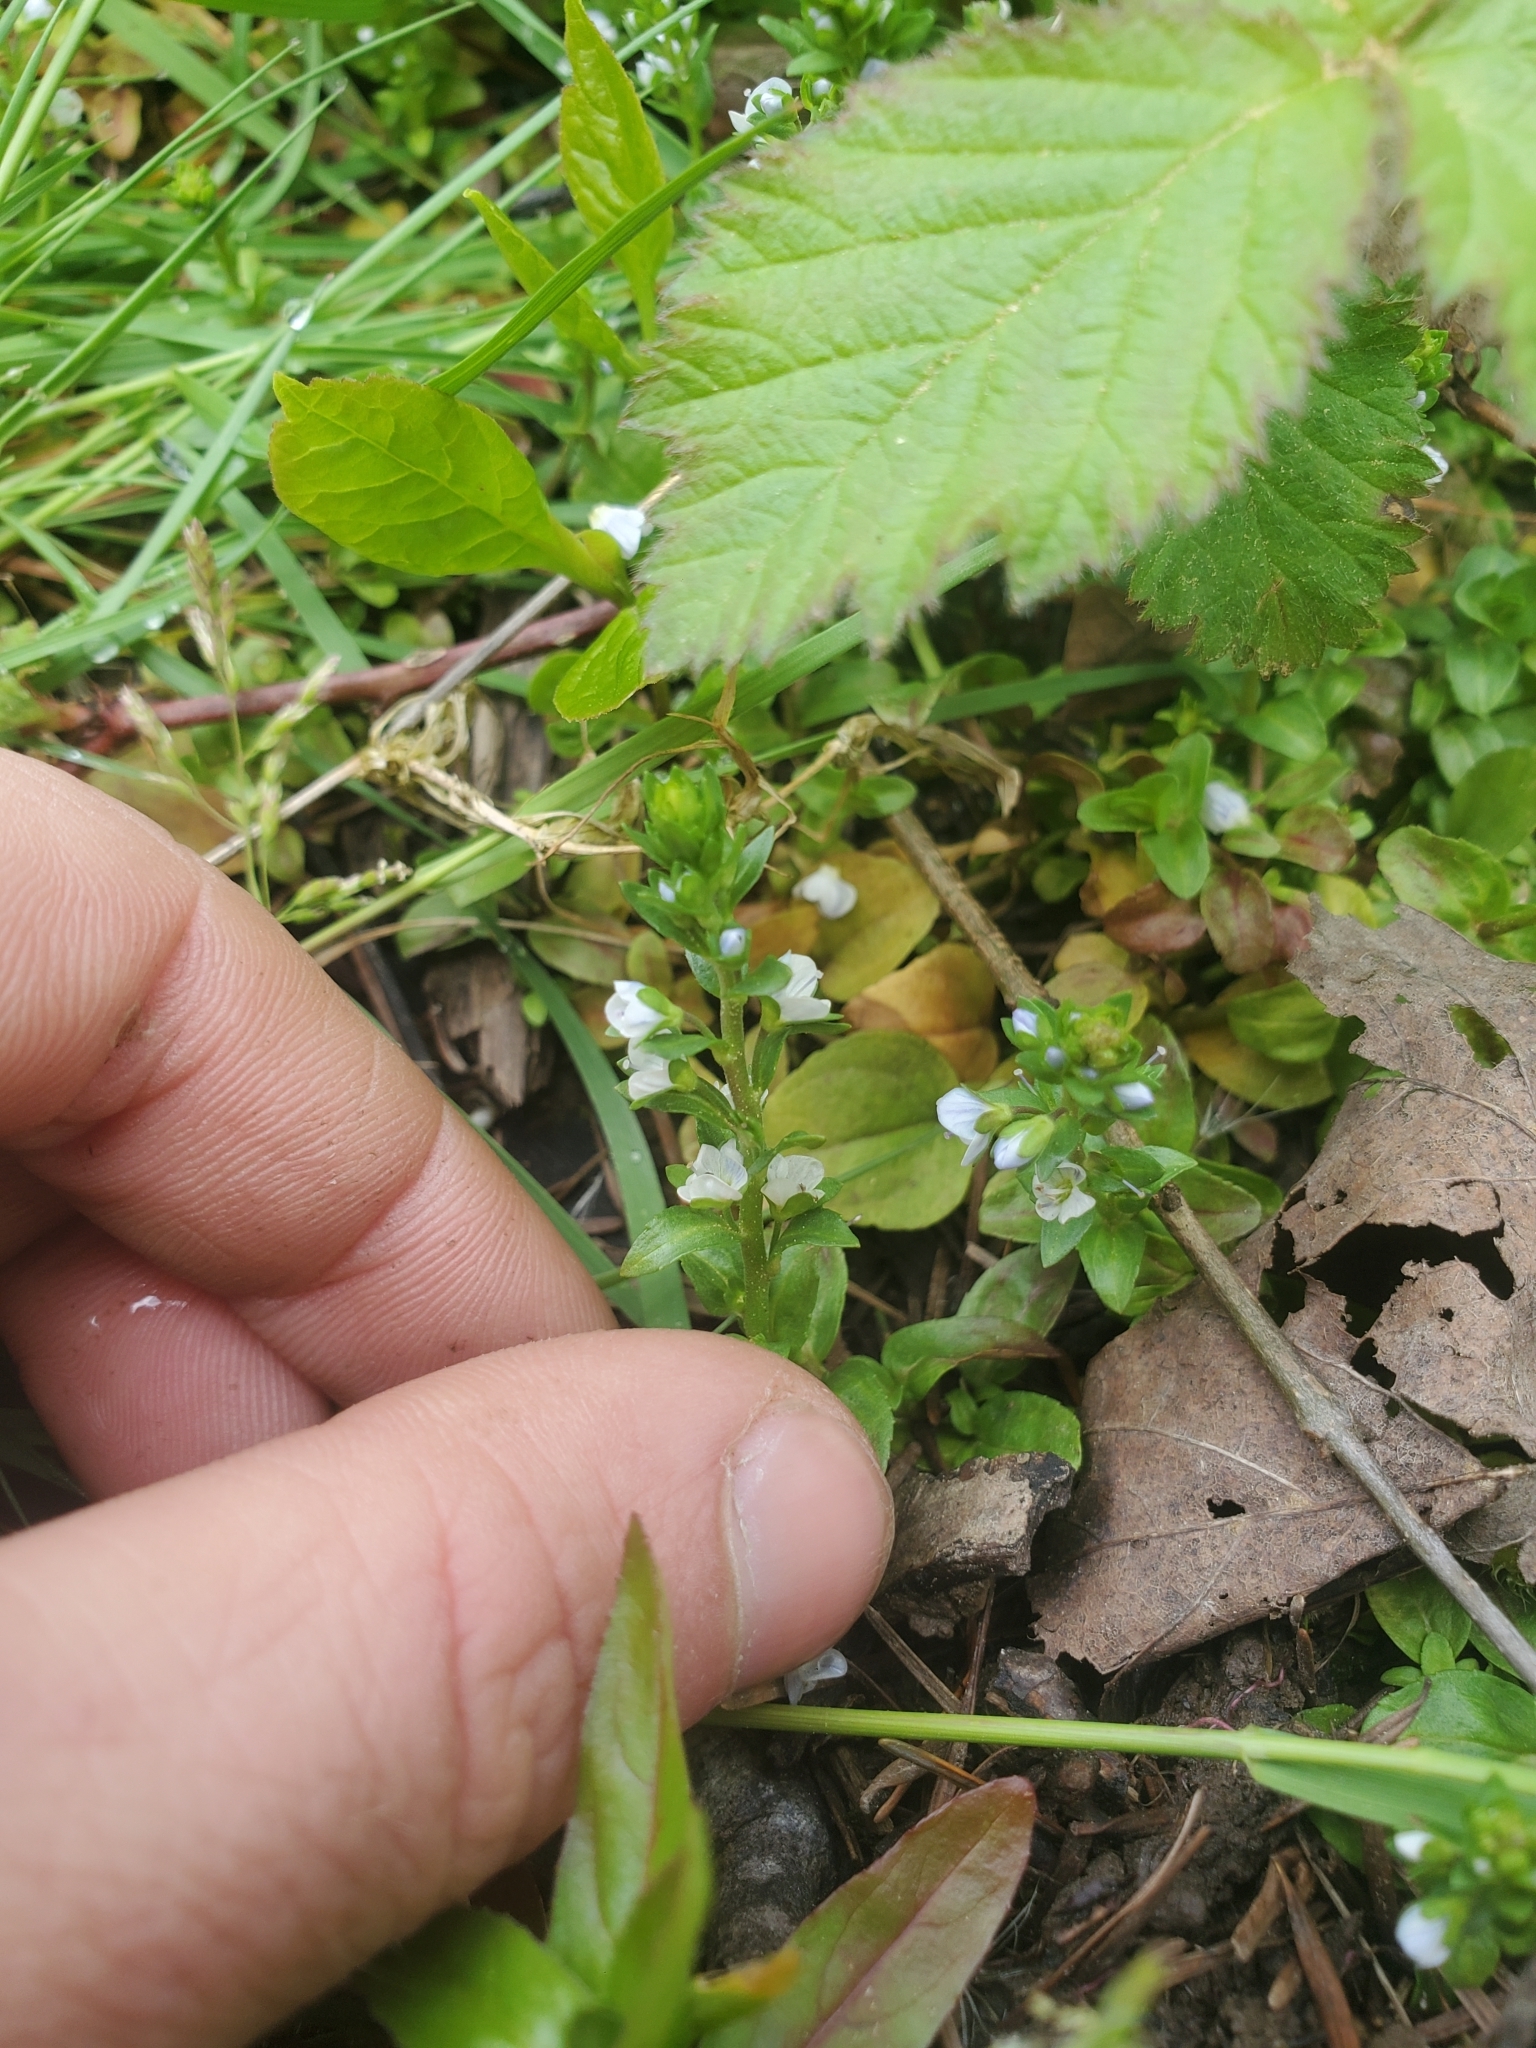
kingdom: Plantae
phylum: Tracheophyta
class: Magnoliopsida
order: Lamiales
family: Plantaginaceae
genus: Veronica
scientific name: Veronica serpyllifolia
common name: Thyme-leaved speedwell
